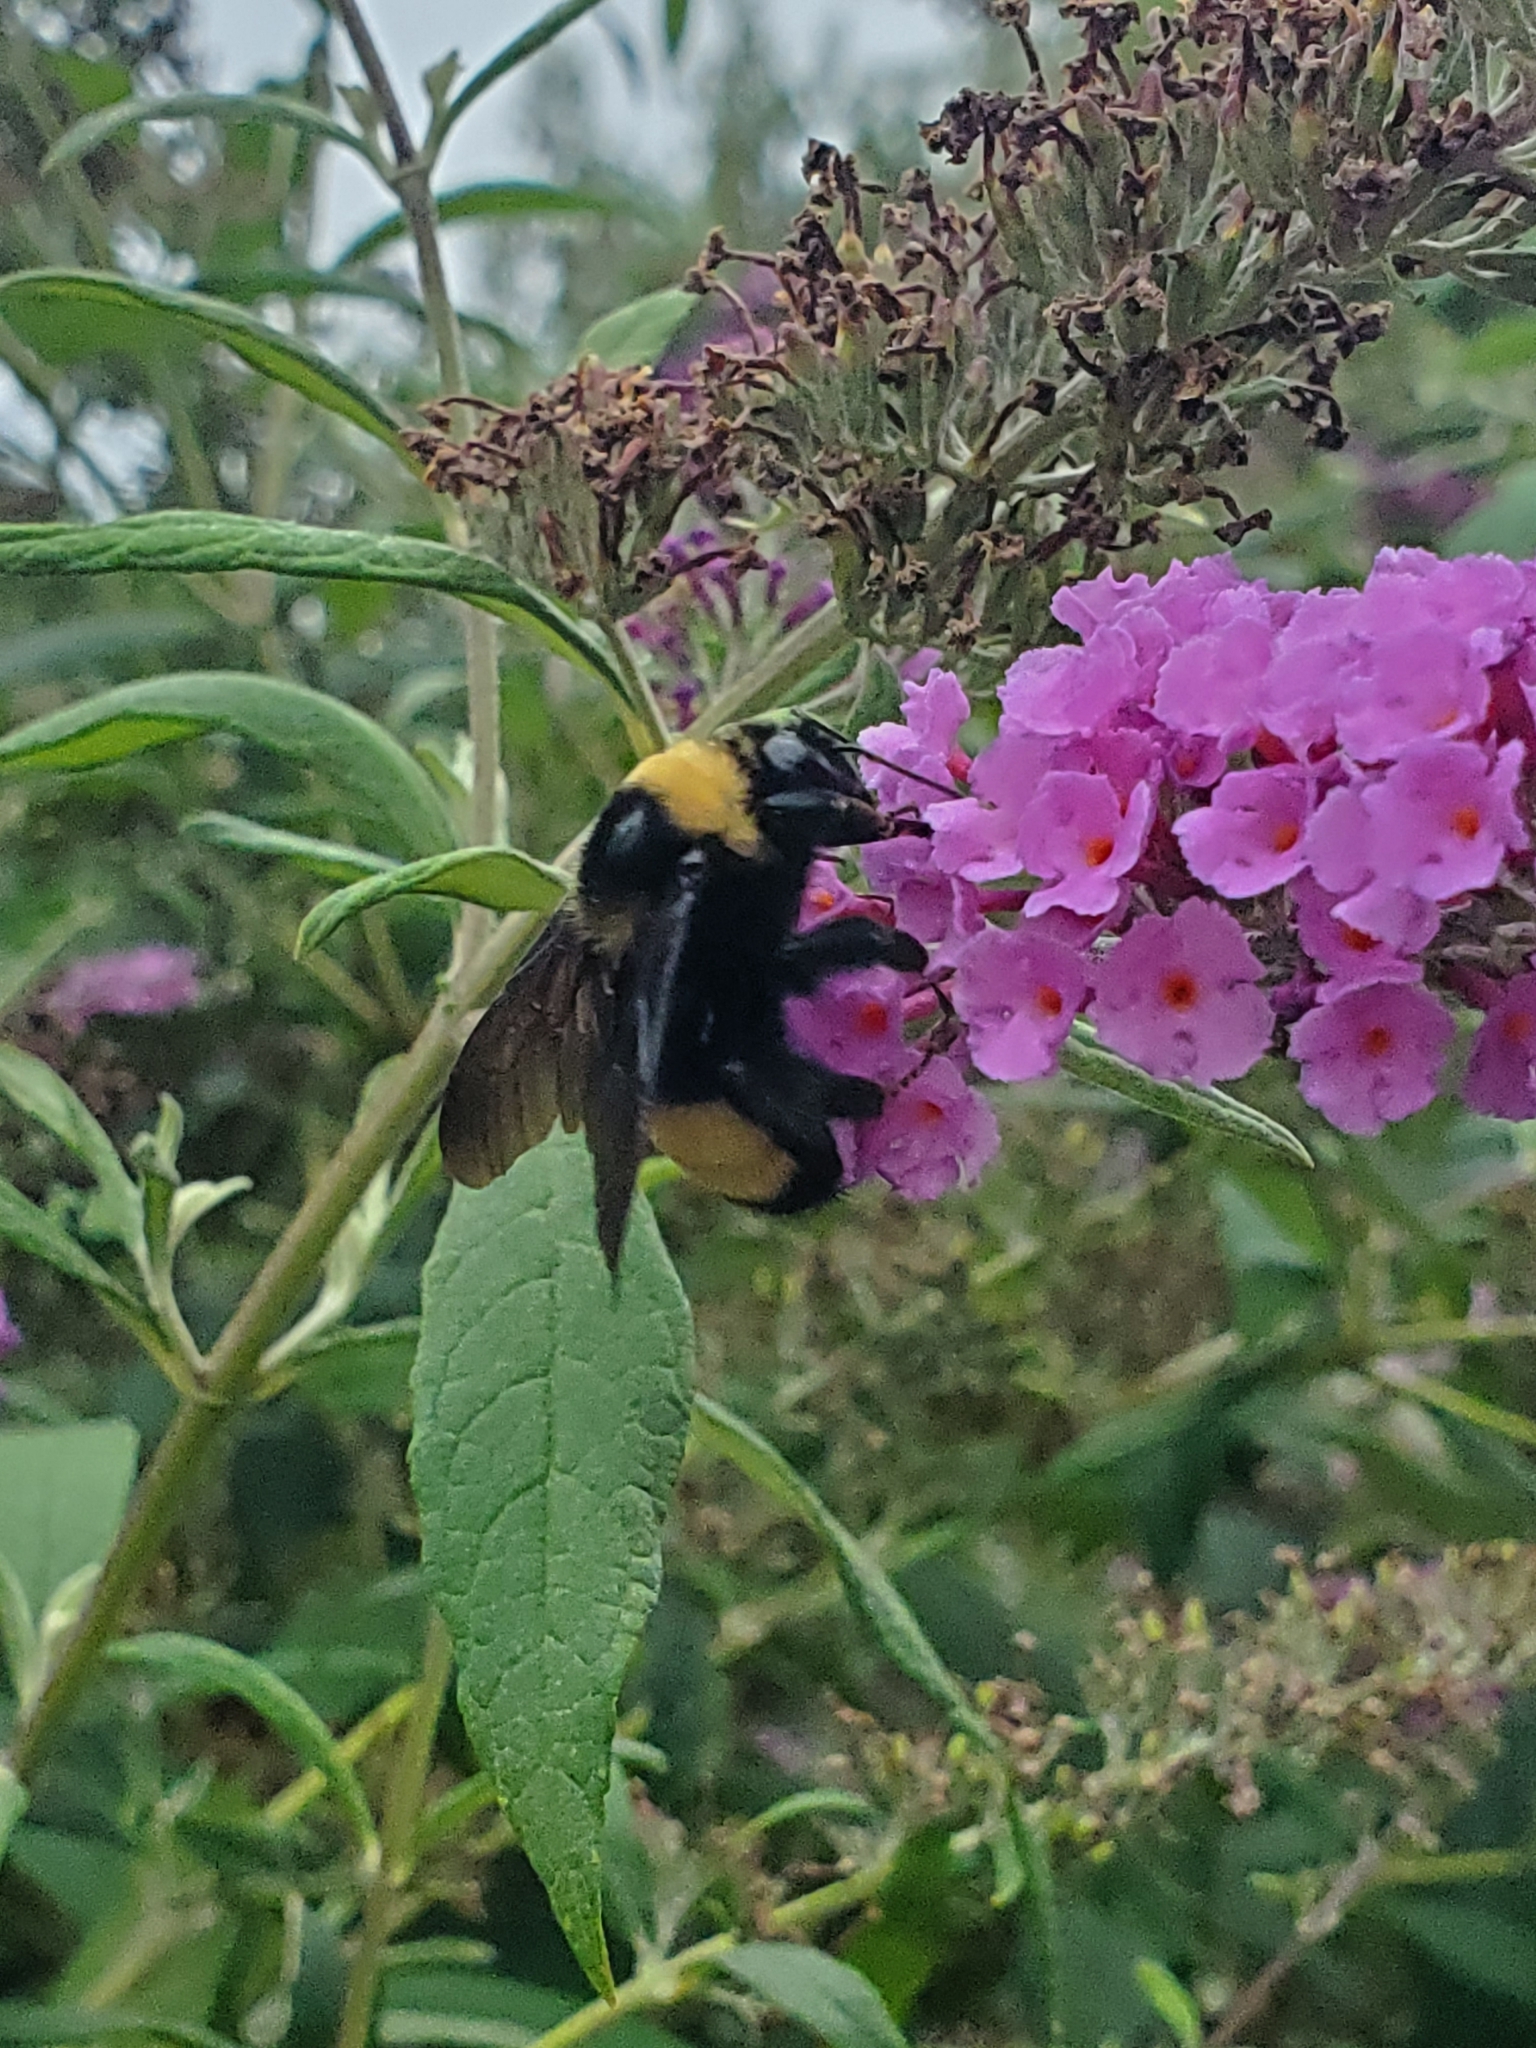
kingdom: Animalia
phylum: Arthropoda
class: Insecta
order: Hymenoptera
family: Apidae
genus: Bombus
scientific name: Bombus auricomus
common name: Black and gold bumble bee
